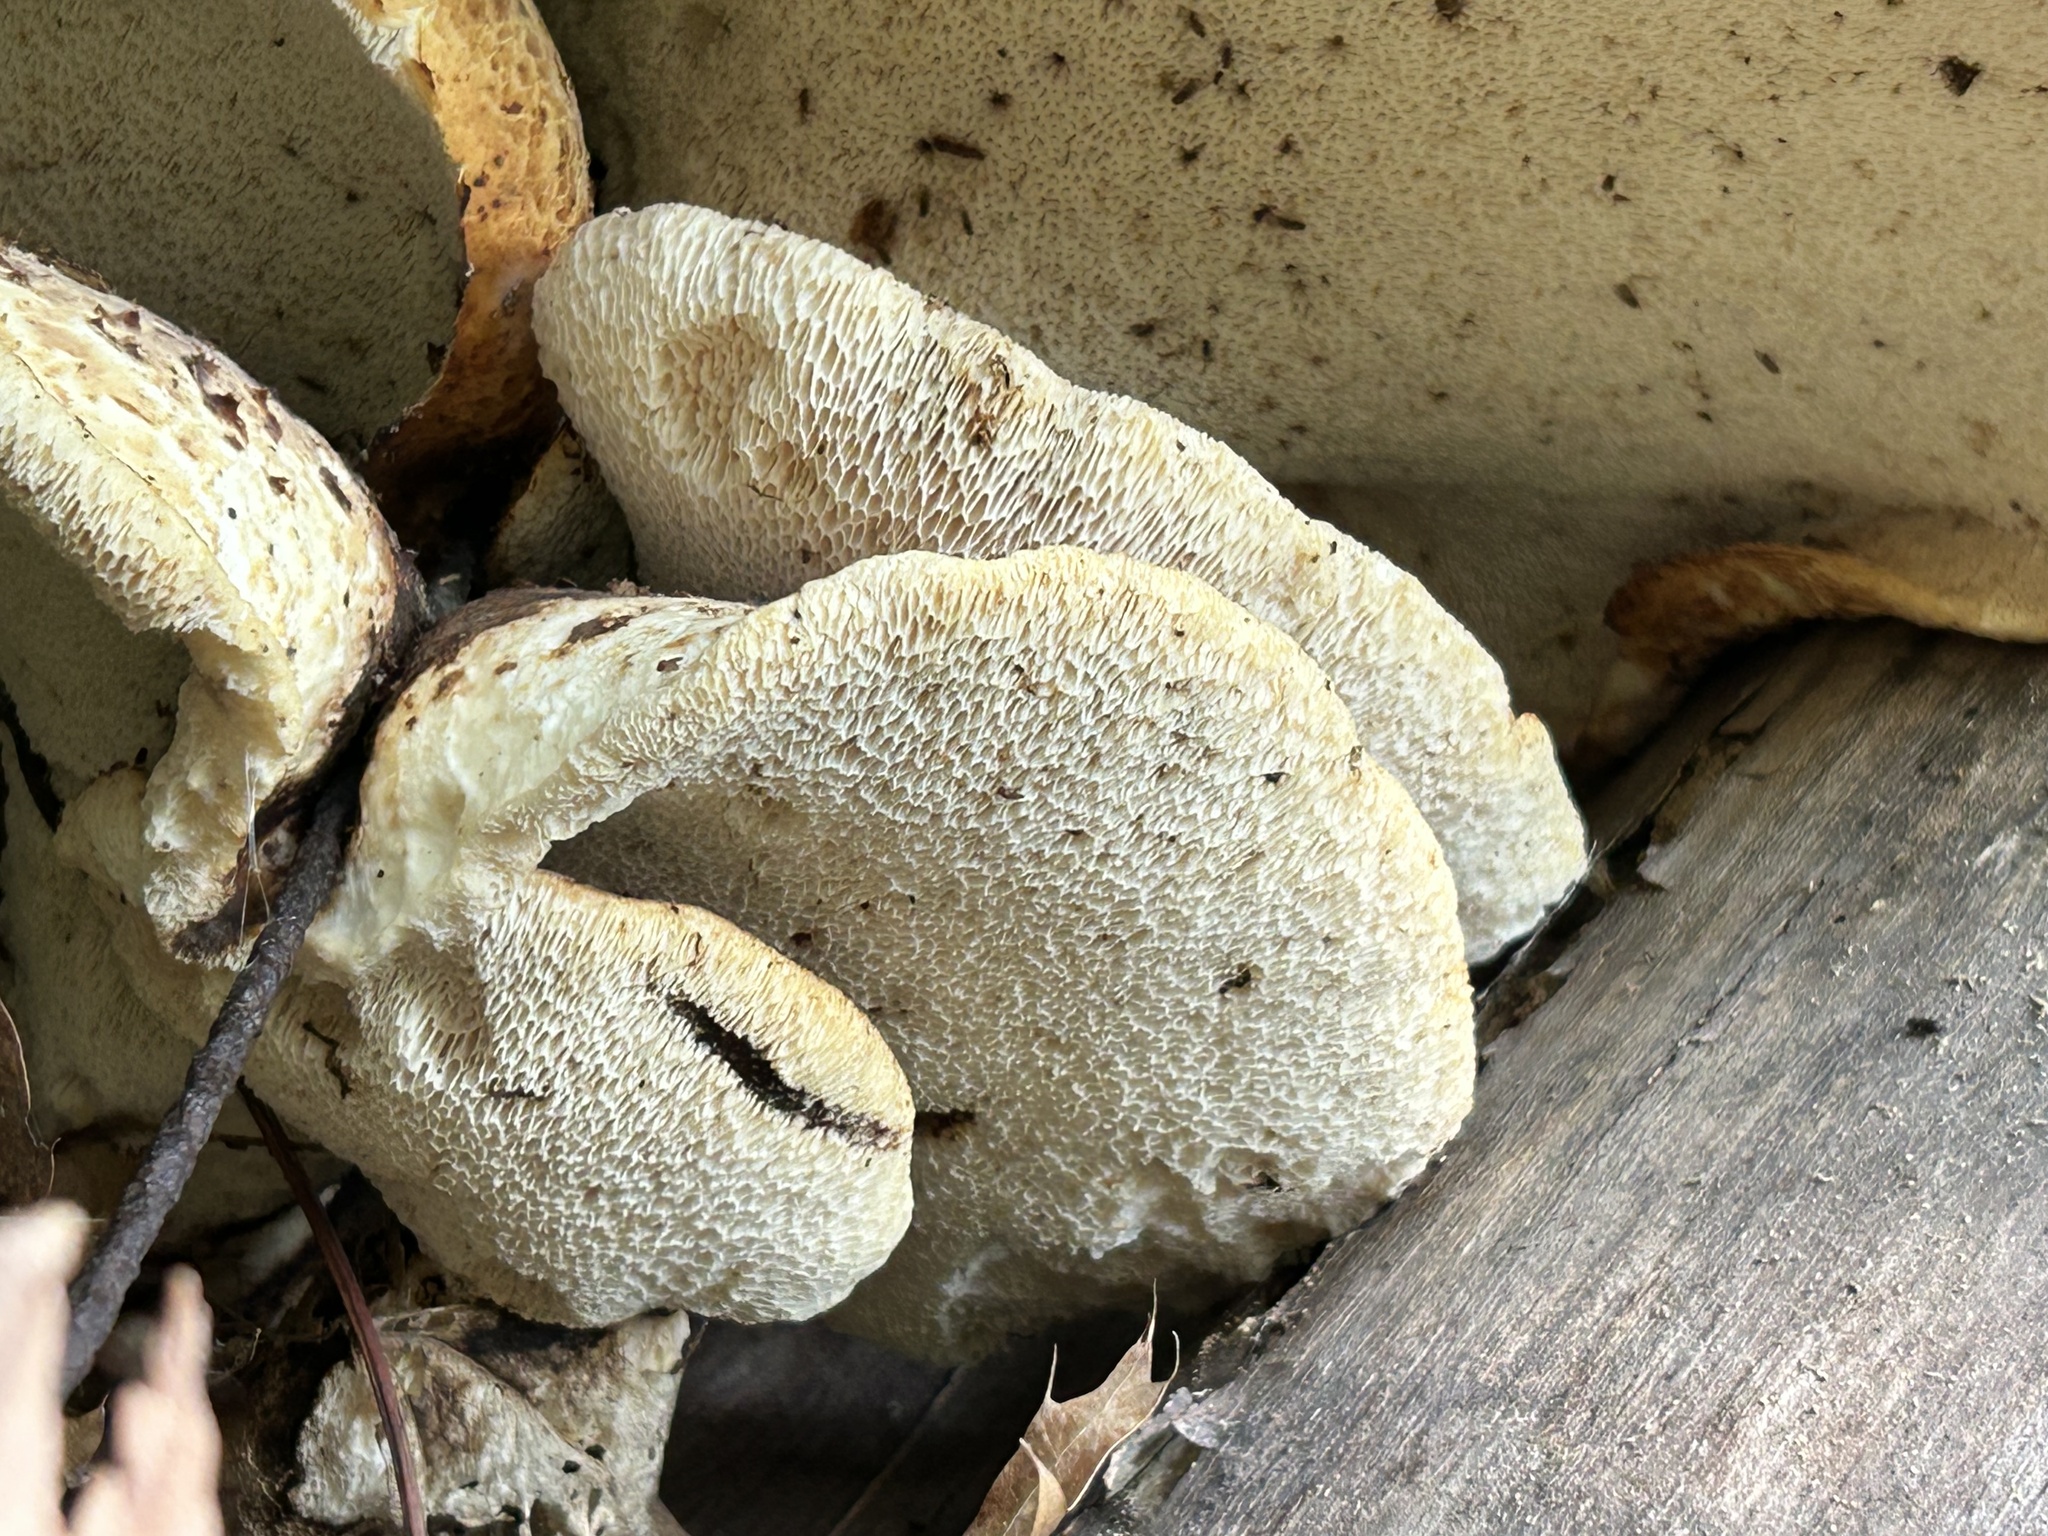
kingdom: Fungi
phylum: Basidiomycota
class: Agaricomycetes
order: Polyporales
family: Polyporaceae
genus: Cerioporus
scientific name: Cerioporus squamosus
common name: Dryad's saddle
